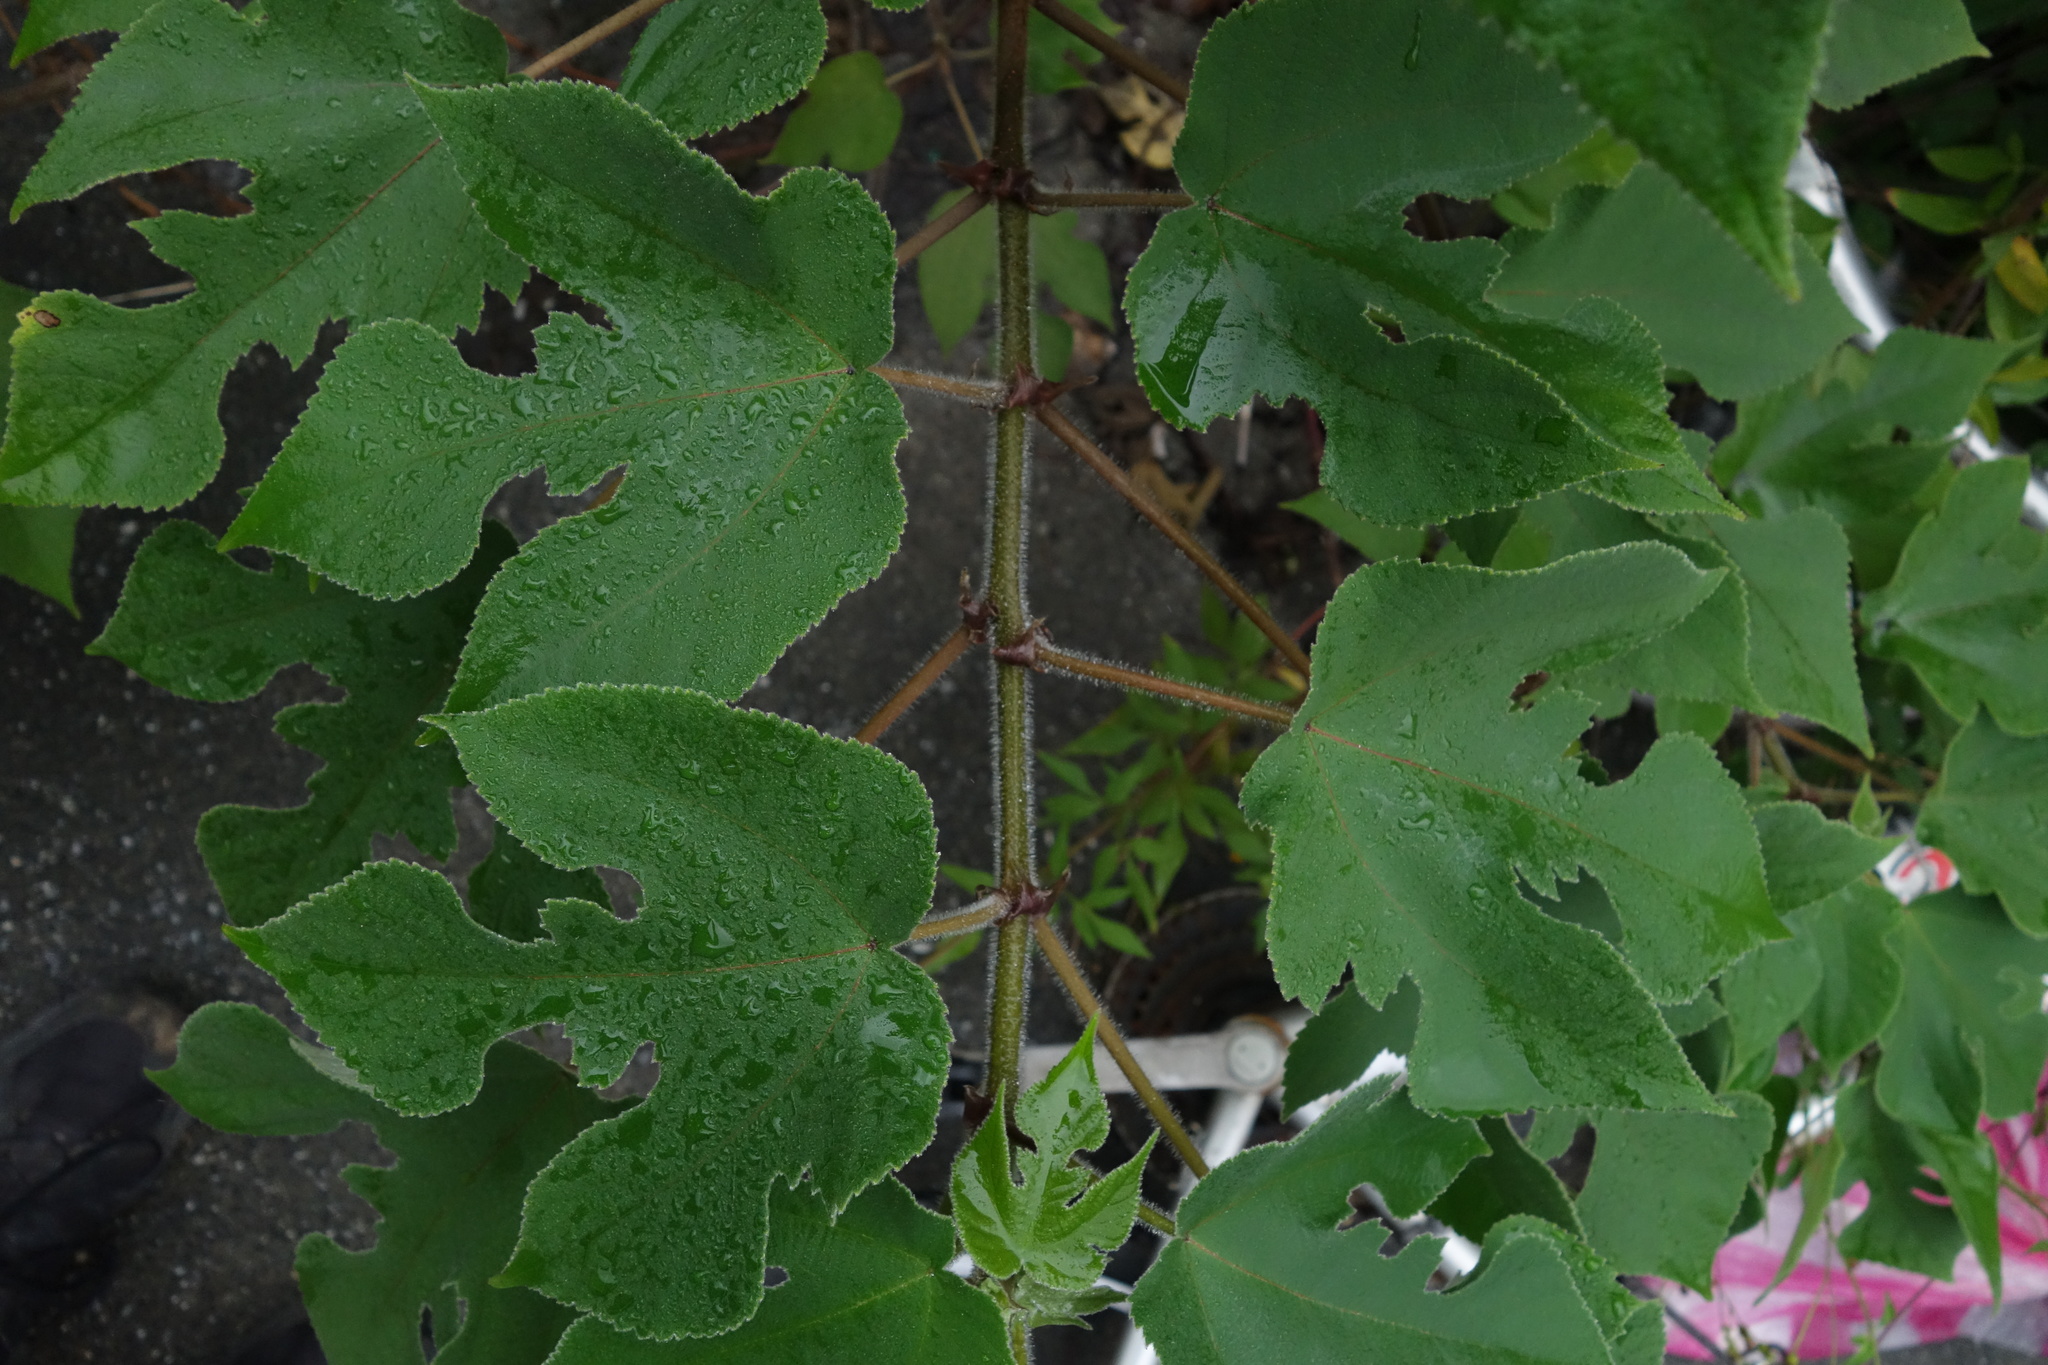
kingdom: Plantae
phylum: Tracheophyta
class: Magnoliopsida
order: Rosales
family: Moraceae
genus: Broussonetia
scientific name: Broussonetia papyrifera
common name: Paper mulberry
